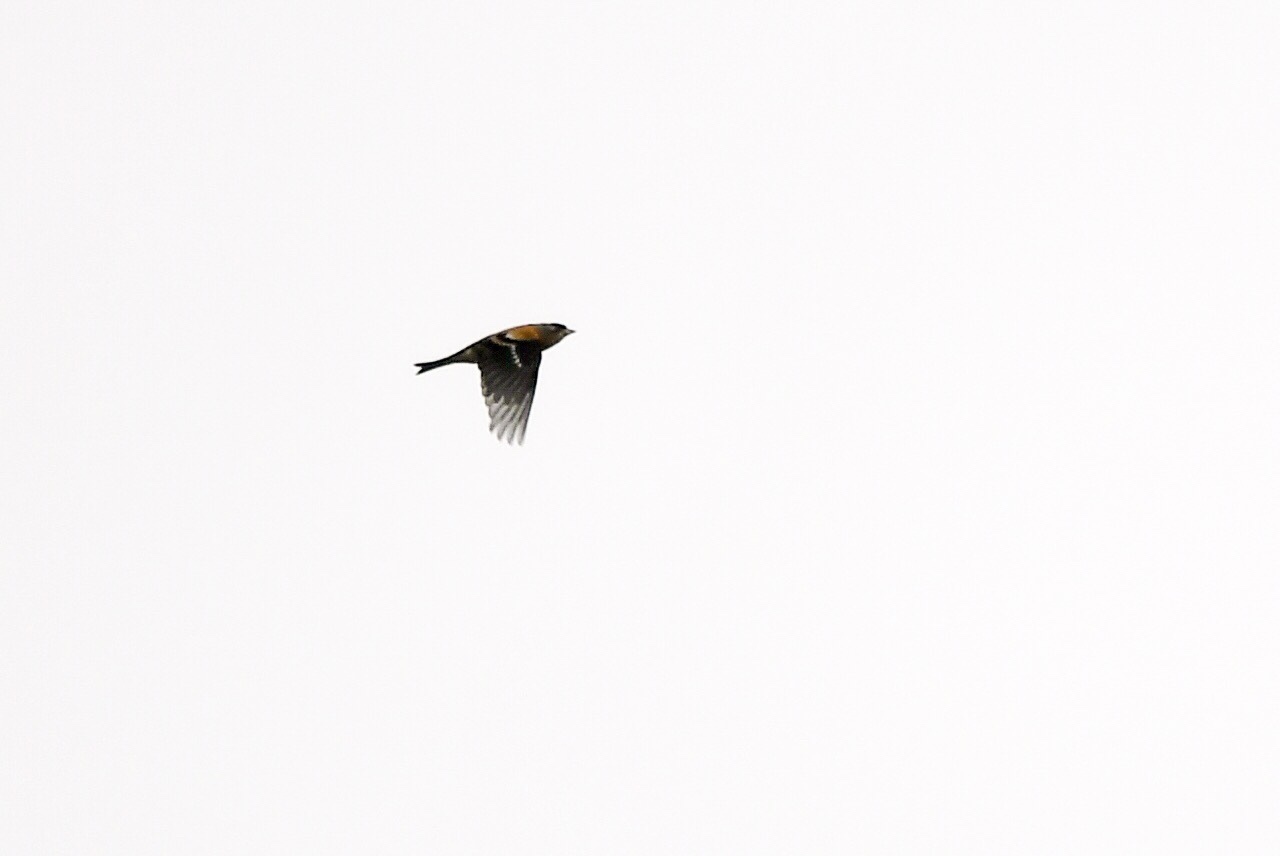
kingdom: Animalia
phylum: Chordata
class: Aves
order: Passeriformes
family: Fringillidae
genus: Fringilla
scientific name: Fringilla montifringilla
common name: Brambling
